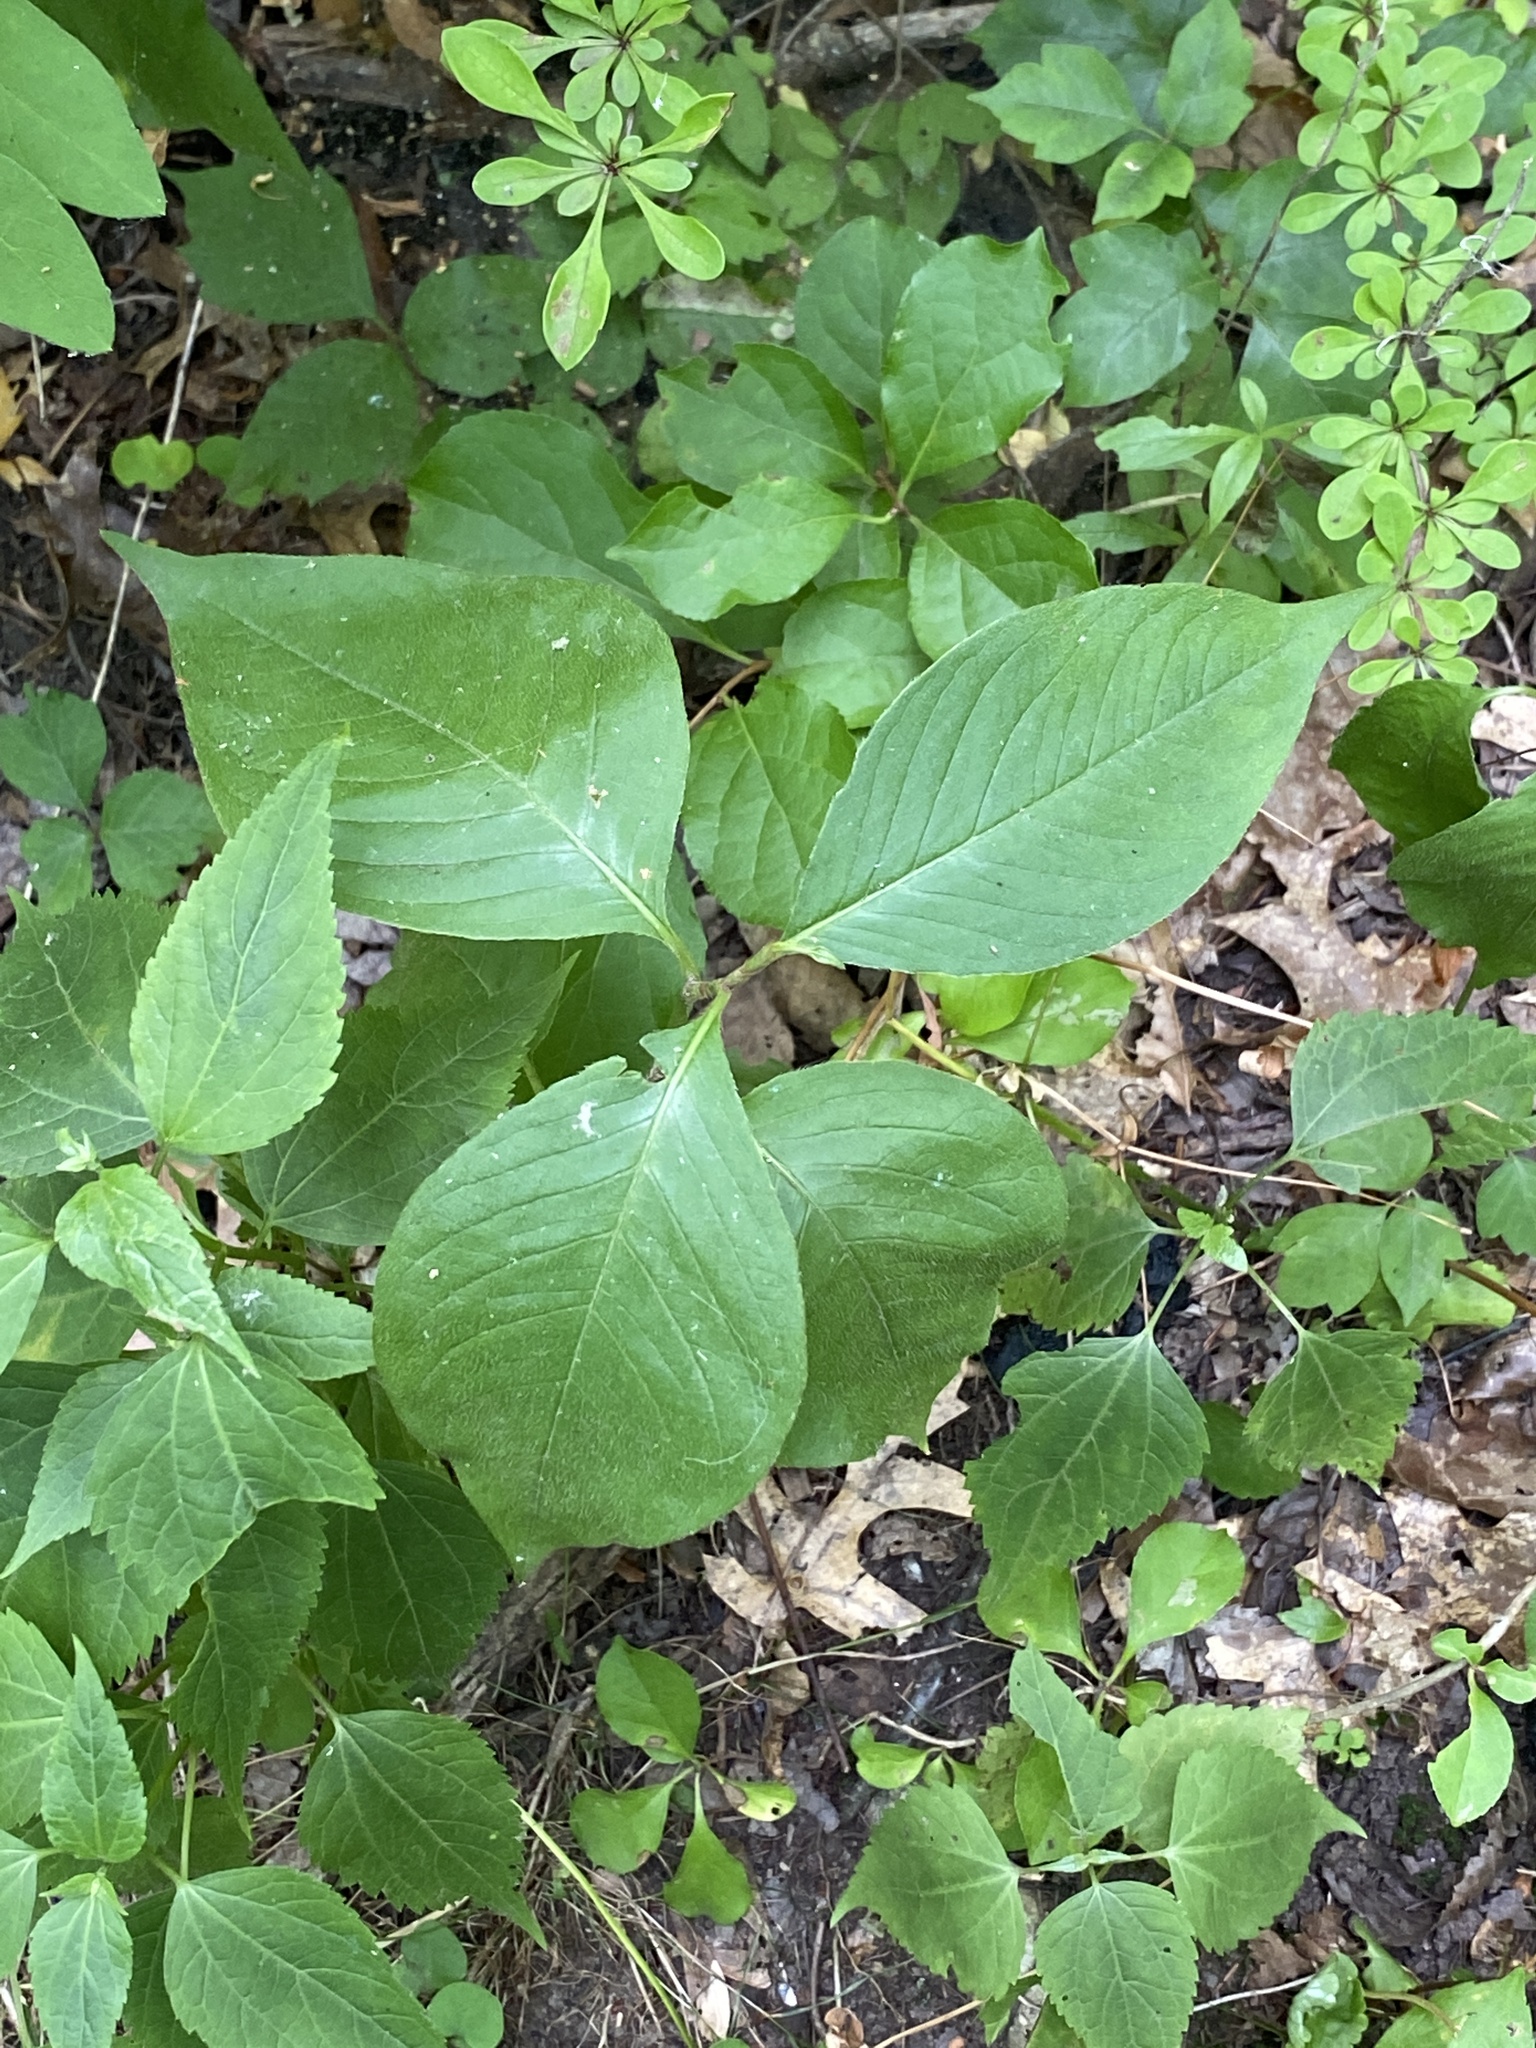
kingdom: Plantae
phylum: Tracheophyta
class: Magnoliopsida
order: Caryophyllales
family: Polygonaceae
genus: Persicaria
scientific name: Persicaria virginiana
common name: Jumpseed
